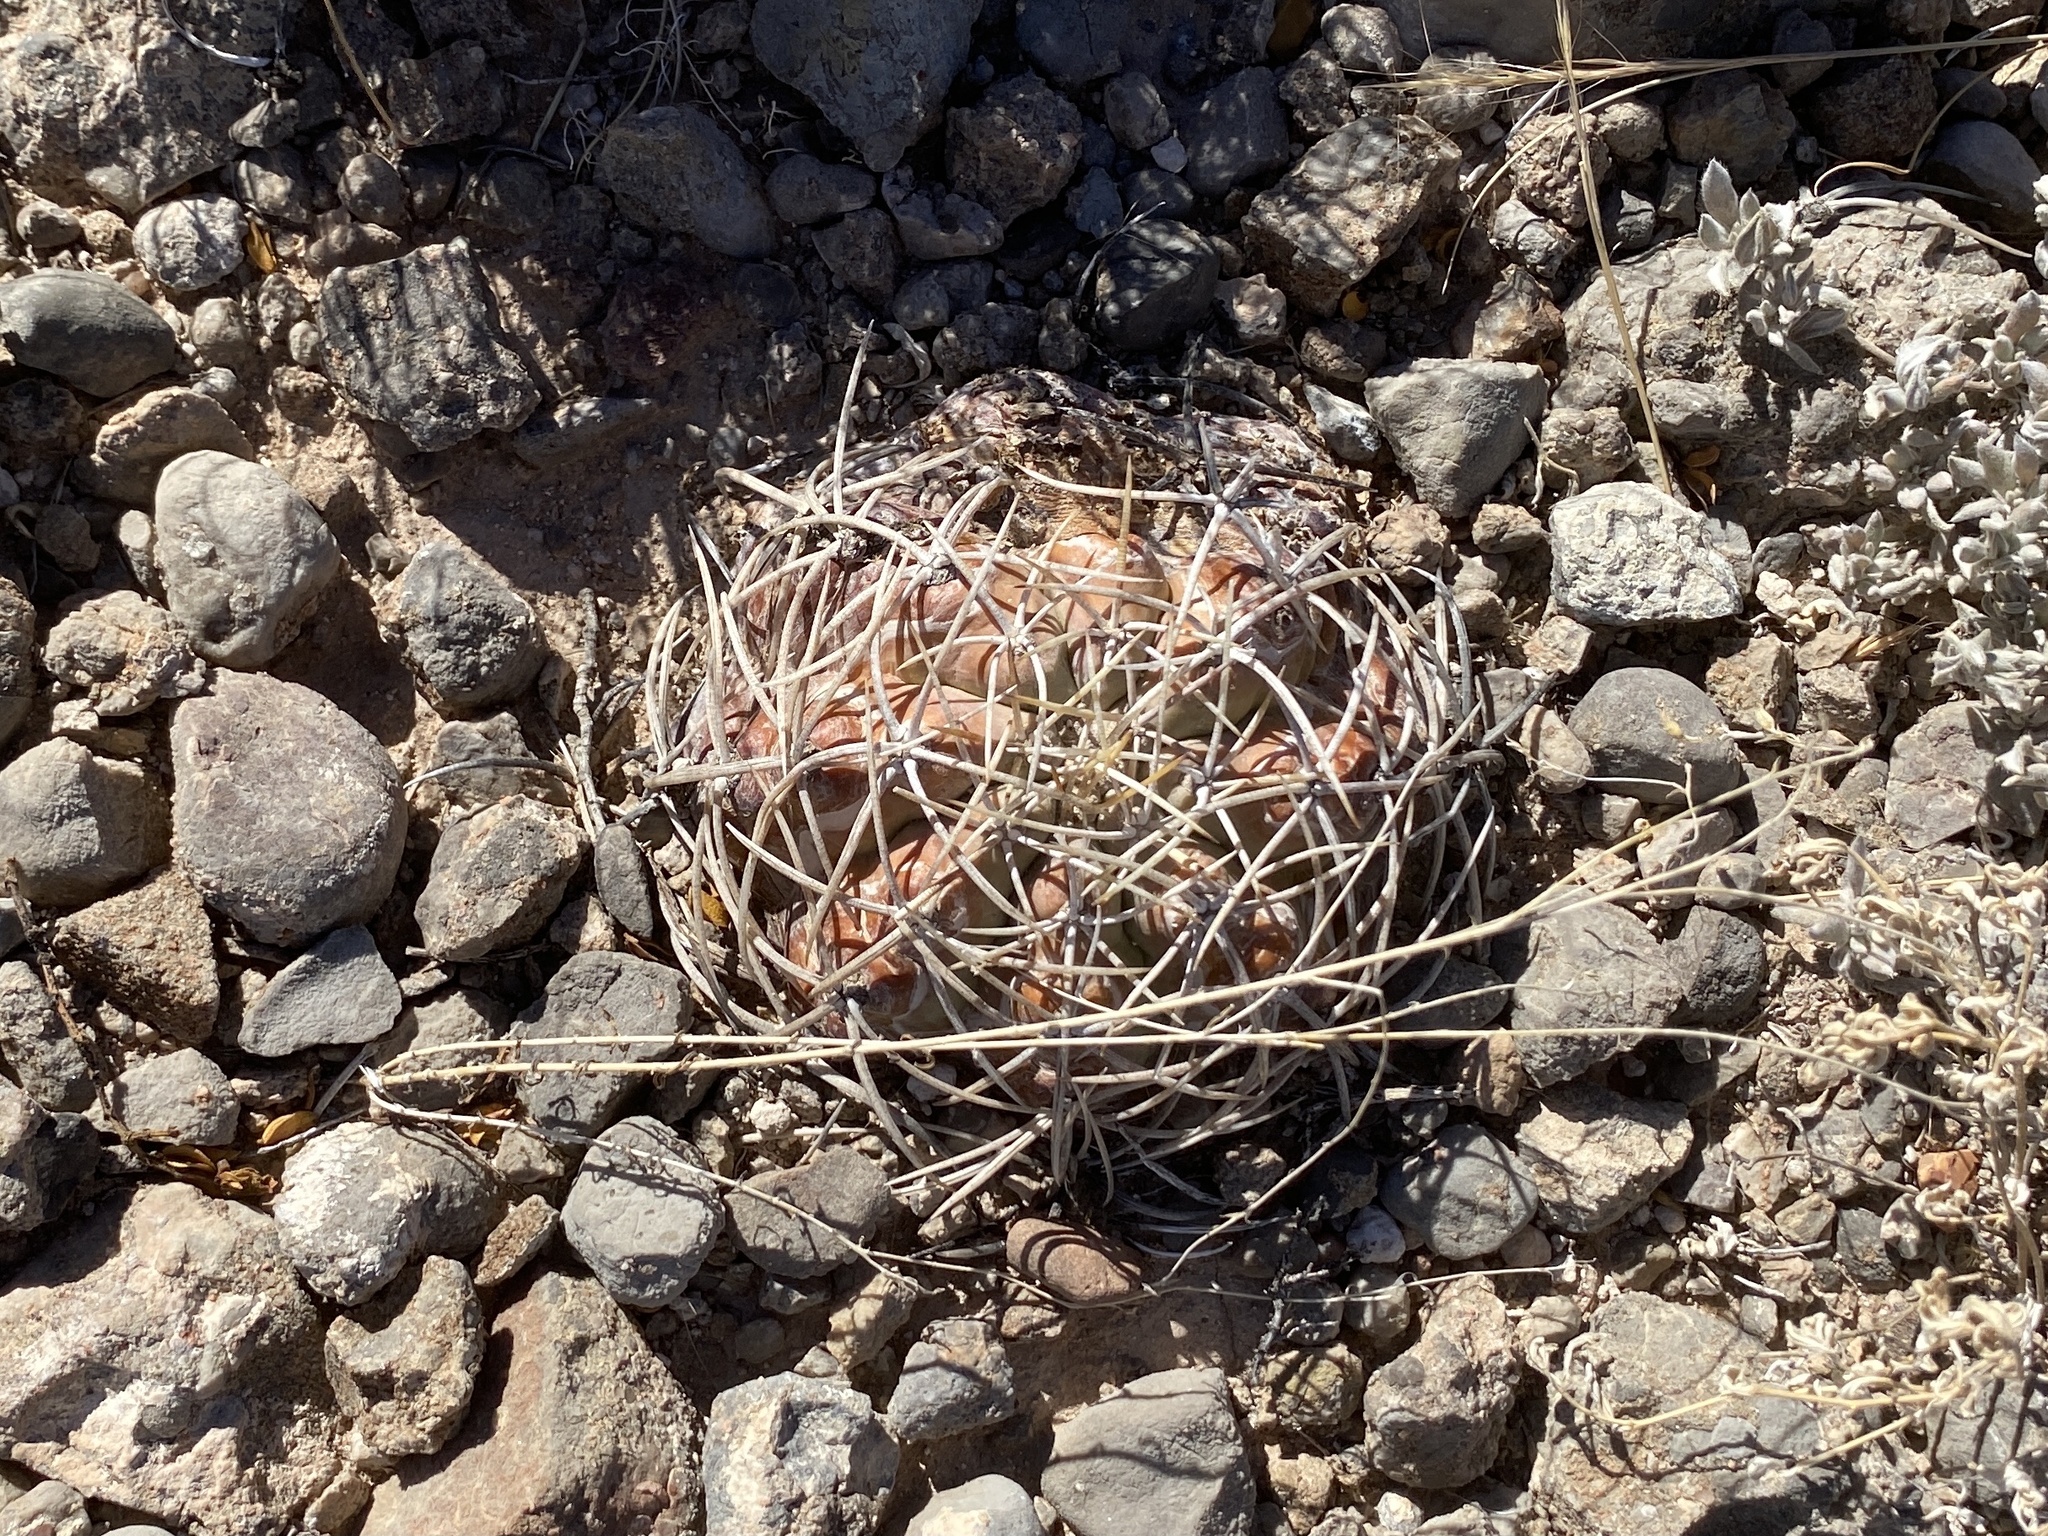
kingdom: Plantae
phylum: Tracheophyta
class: Magnoliopsida
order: Caryophyllales
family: Cactaceae
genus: Echinocactus
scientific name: Echinocactus horizonthalonius
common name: Devilshead
